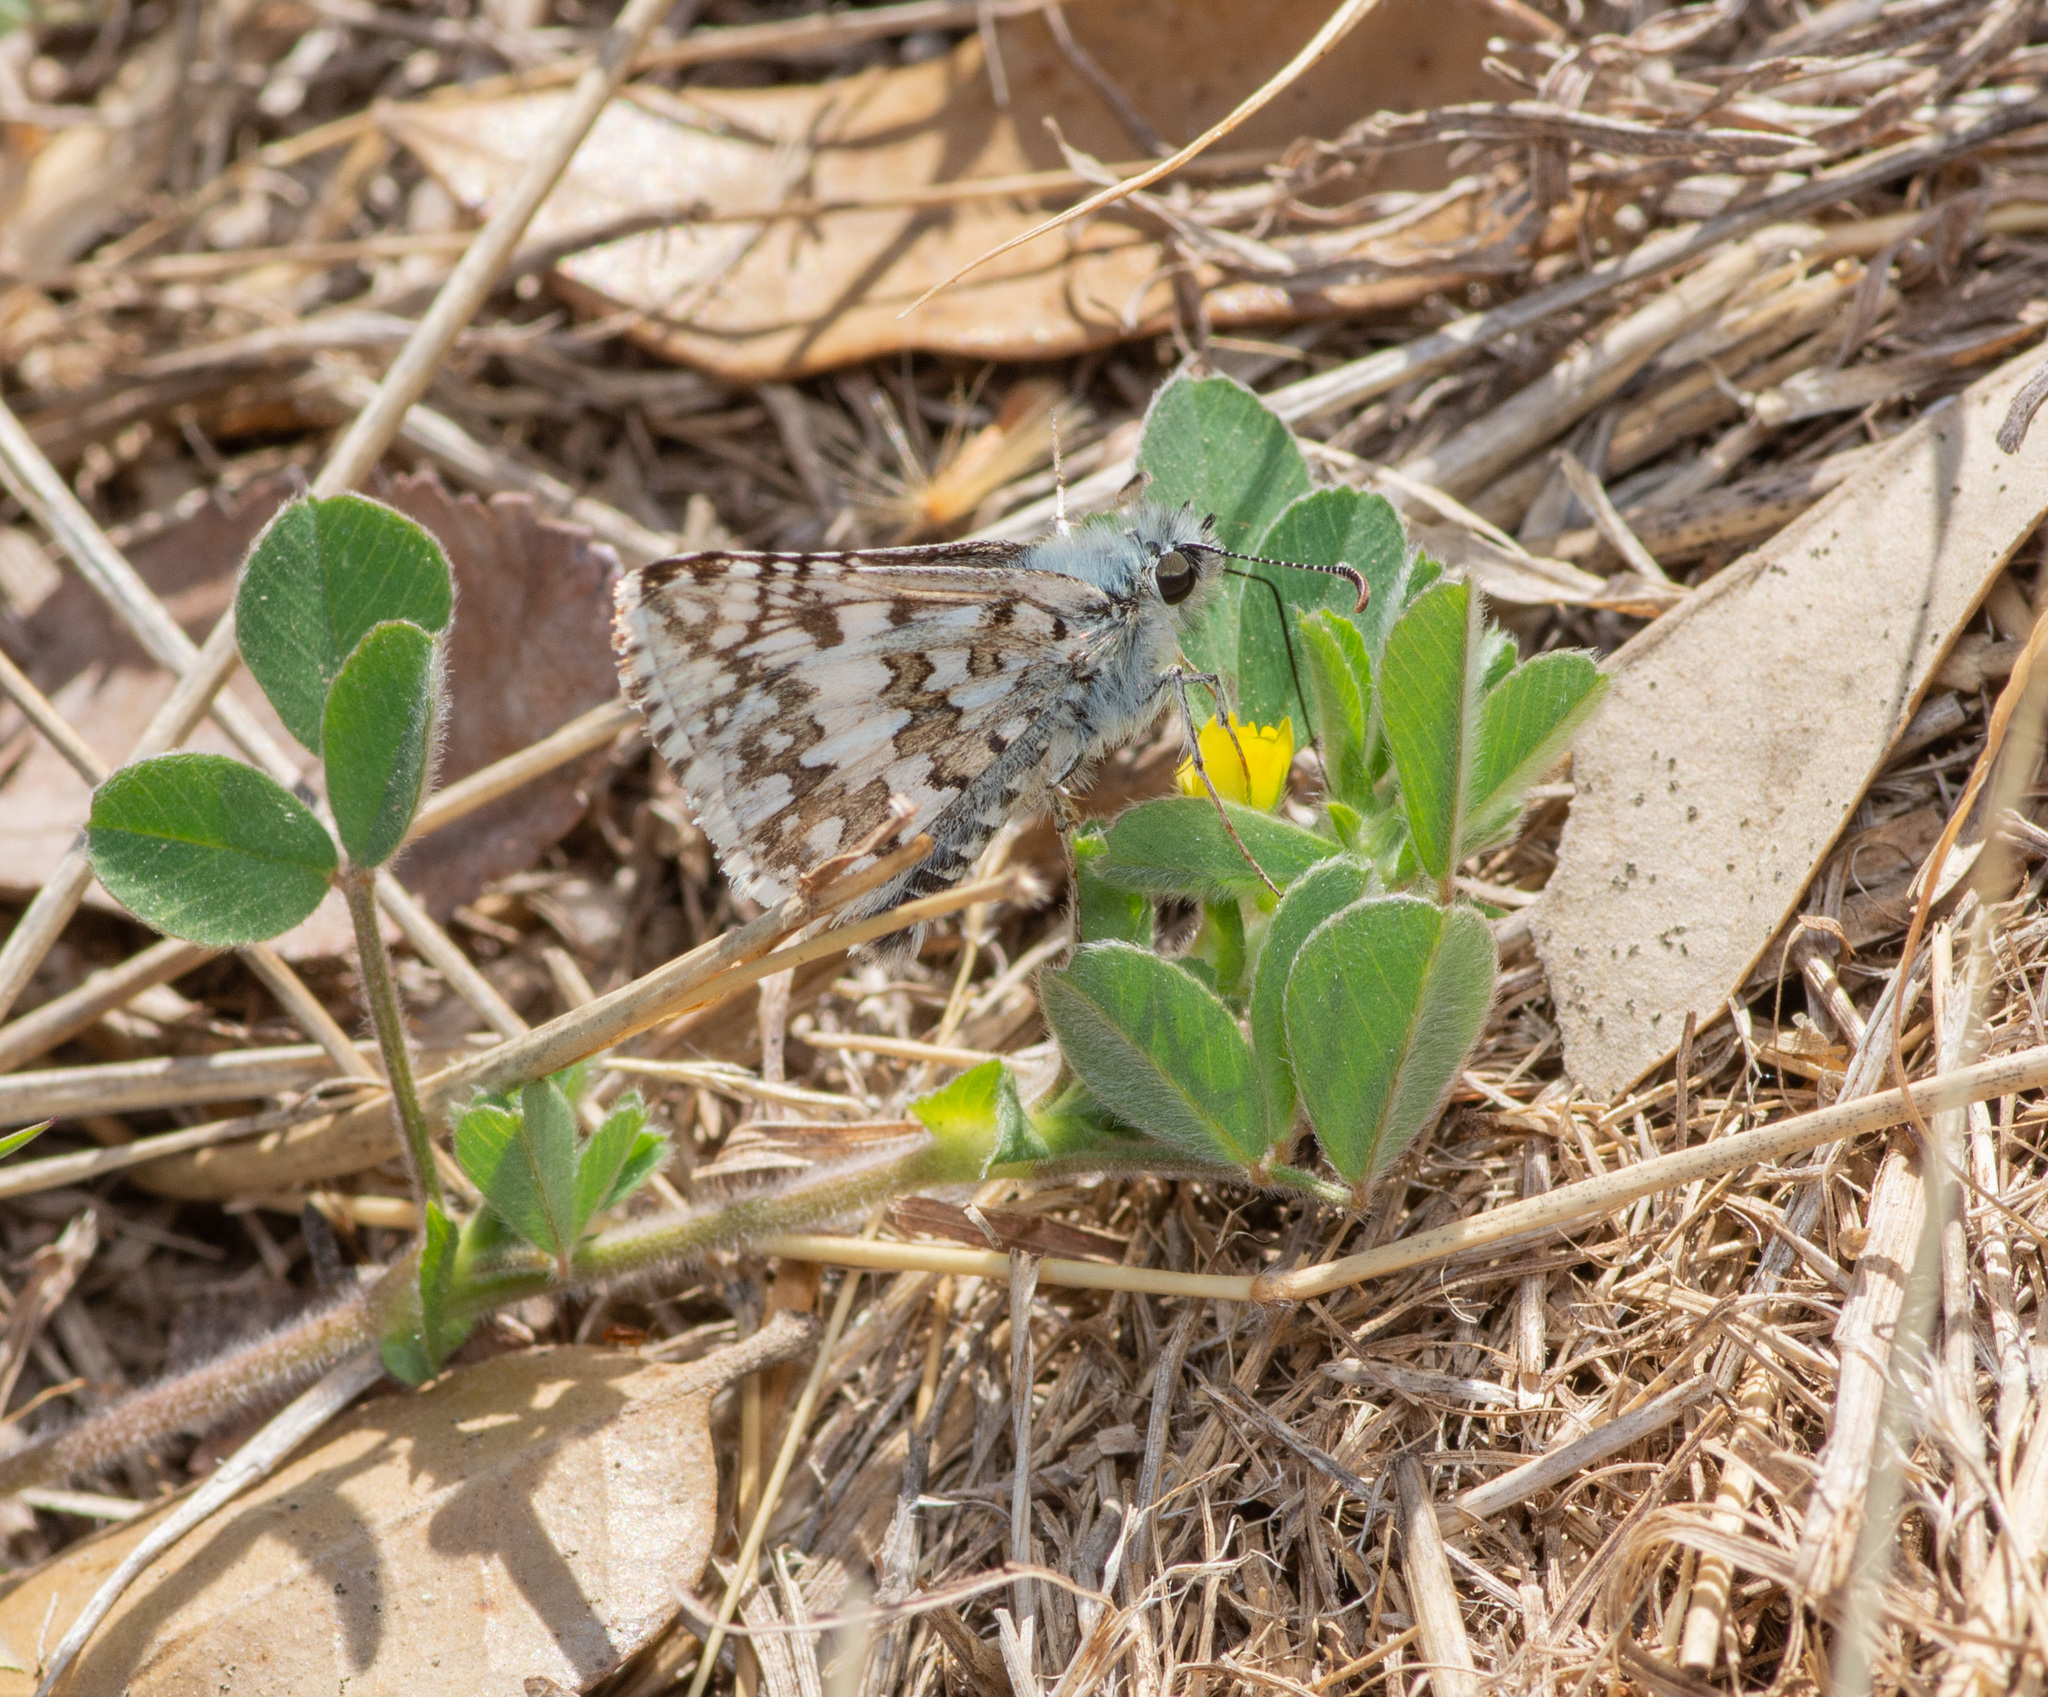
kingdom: Animalia
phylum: Arthropoda
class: Insecta
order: Lepidoptera
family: Hesperiidae
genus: Burnsius
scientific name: Burnsius
